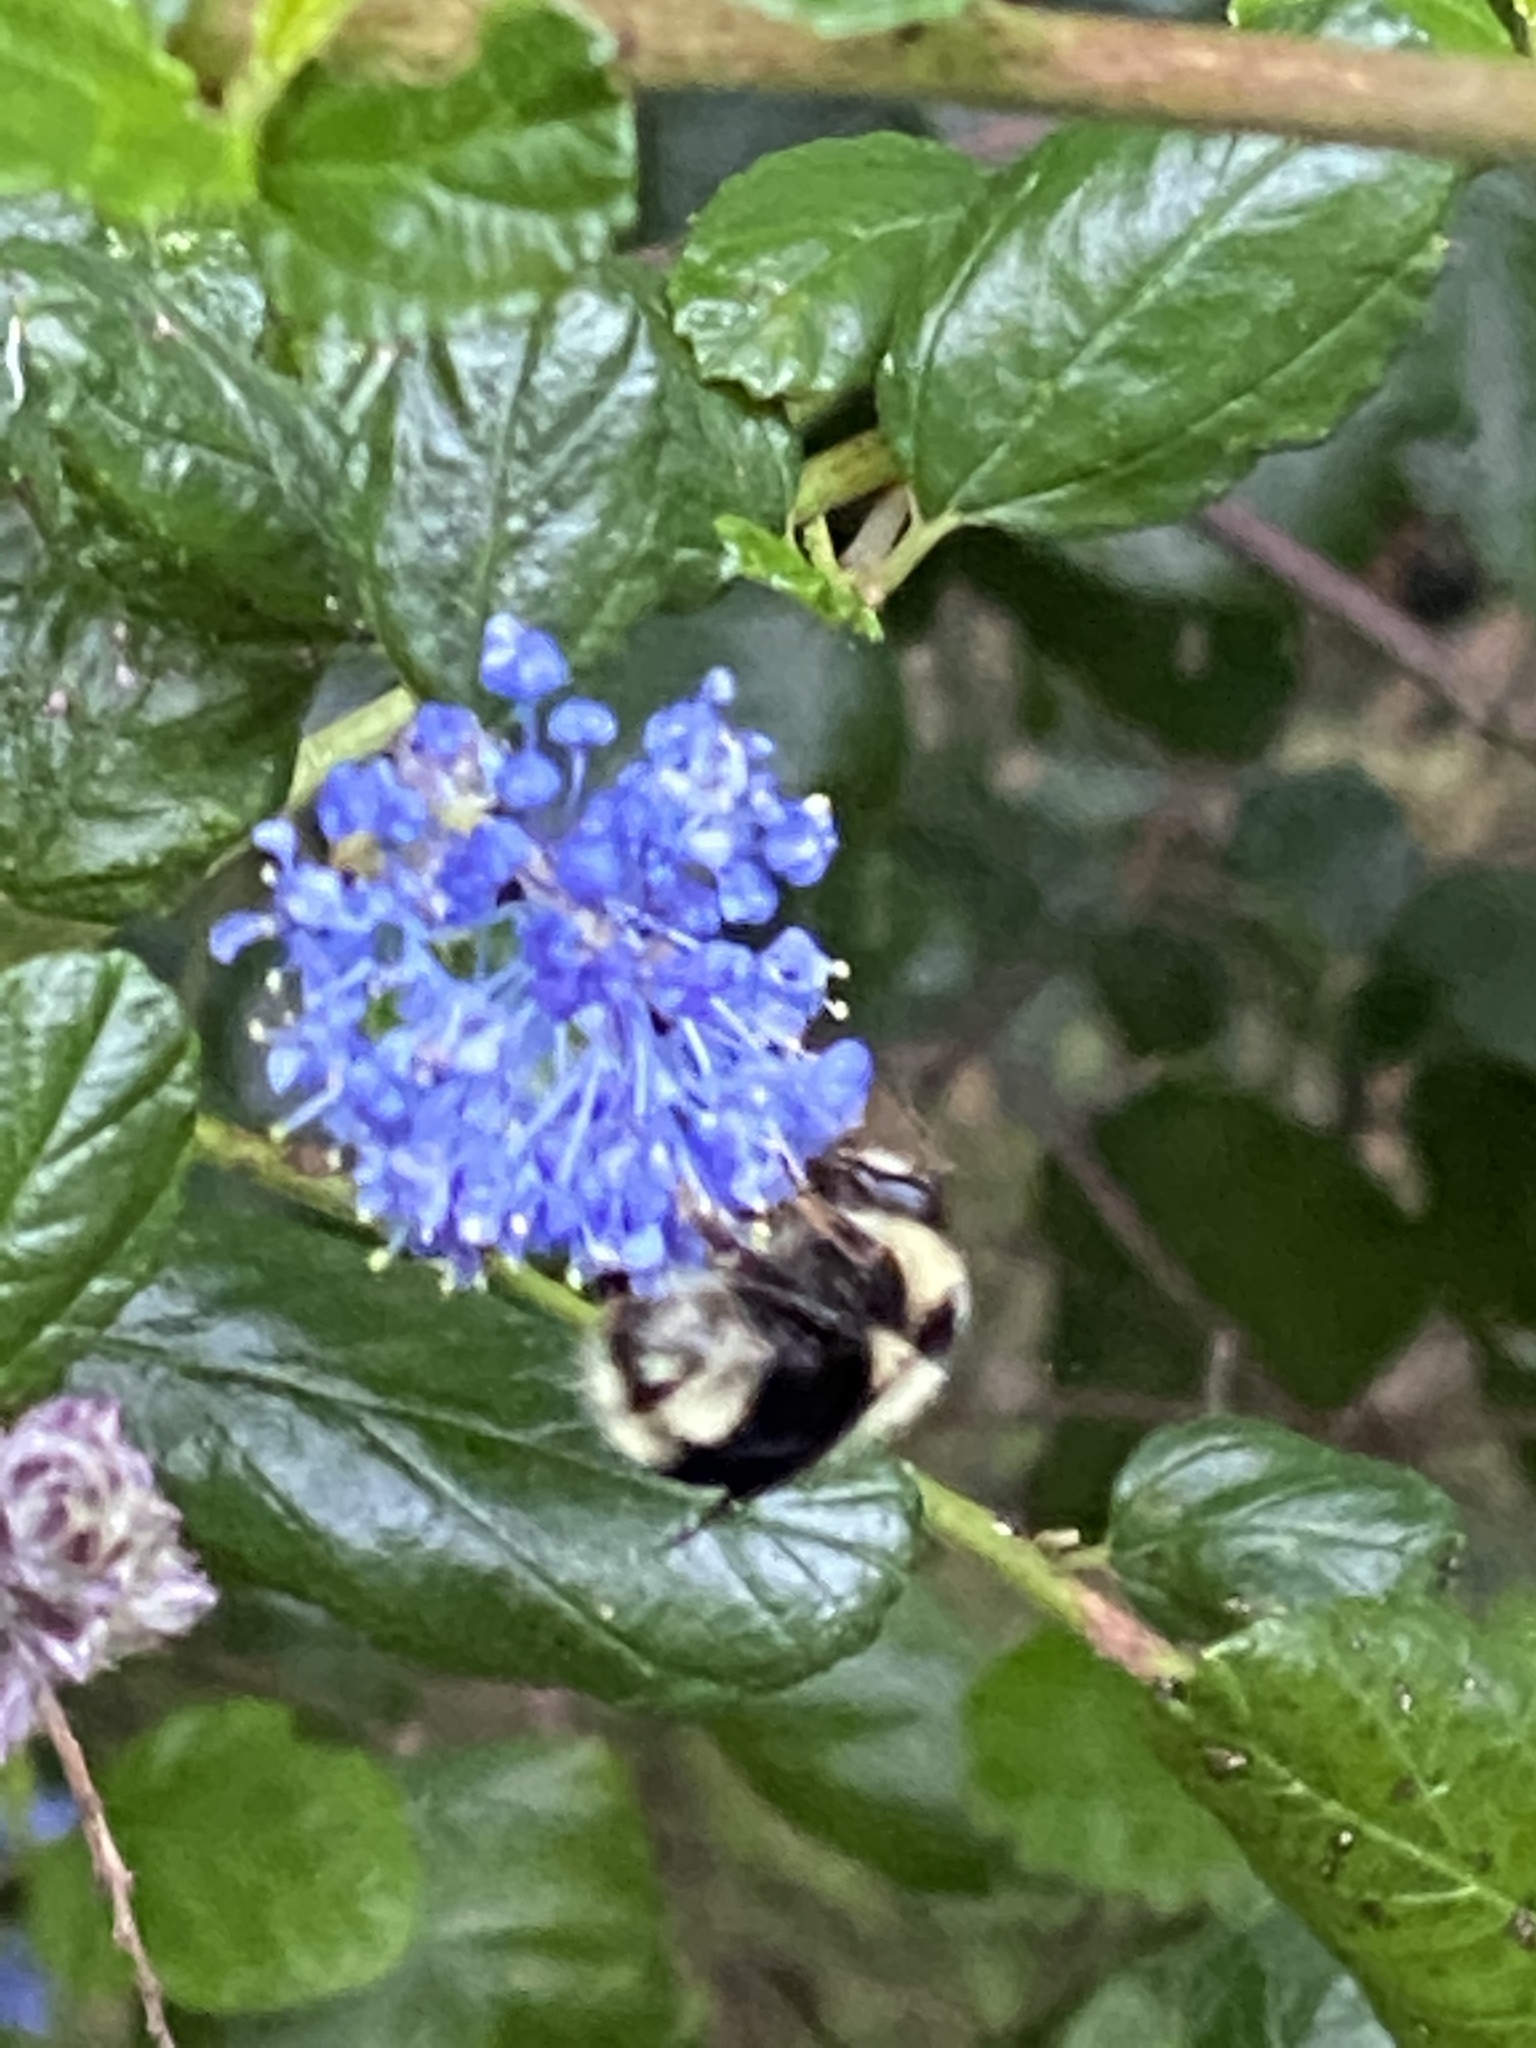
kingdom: Animalia
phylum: Arthropoda
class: Insecta
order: Hymenoptera
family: Apidae
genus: Bombus
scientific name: Bombus melanopygus
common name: Black tail bumble bee
